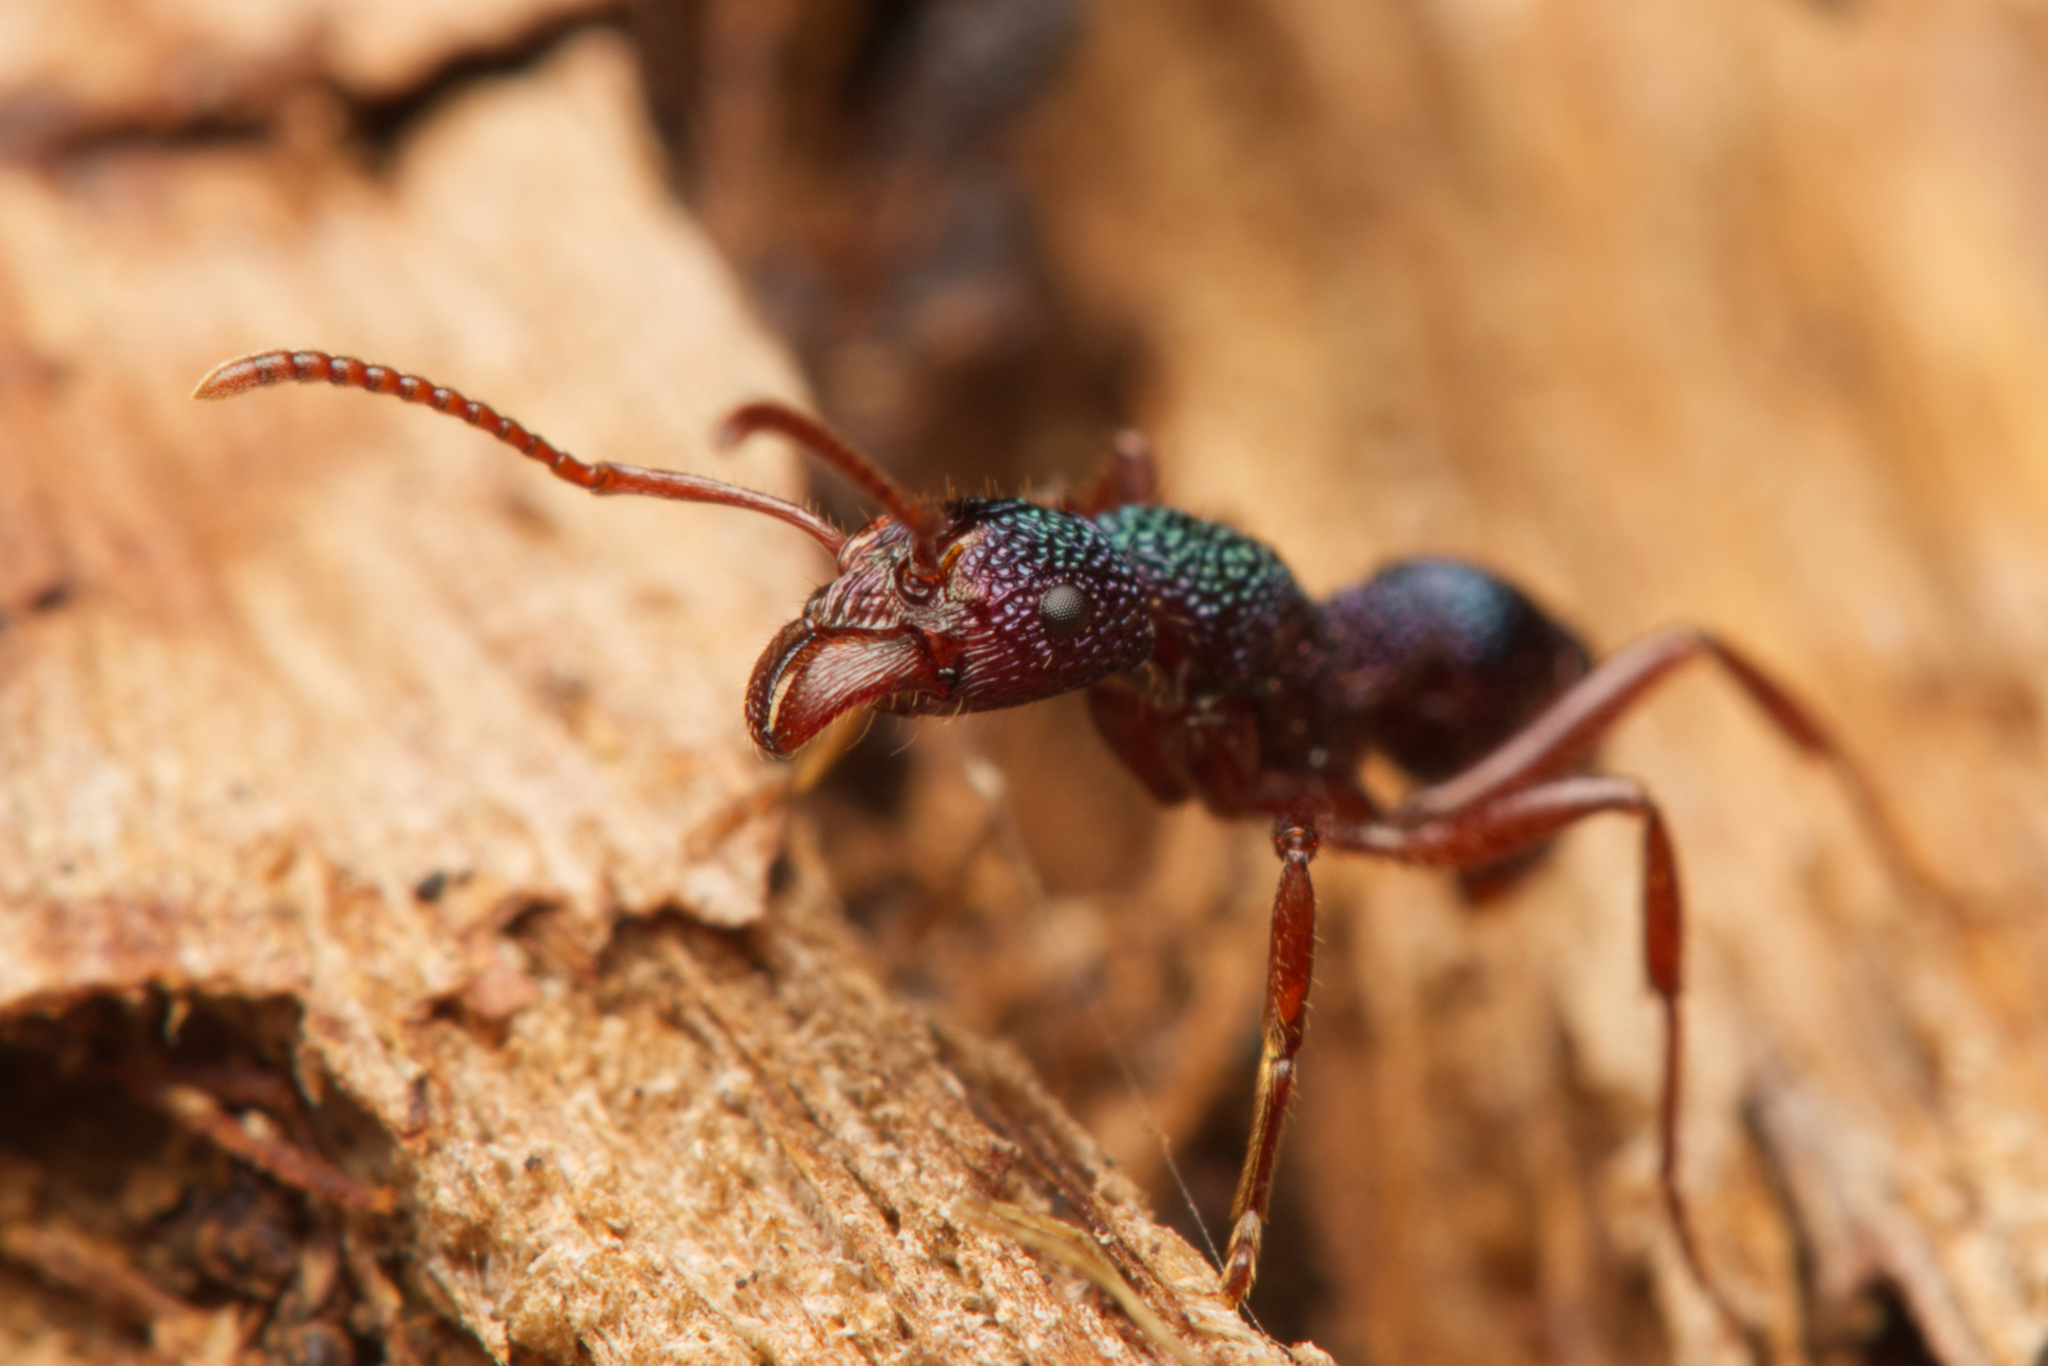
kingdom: Animalia
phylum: Arthropoda
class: Insecta
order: Hymenoptera
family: Formicidae
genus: Rhytidoponera
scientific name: Rhytidoponera scabrior
